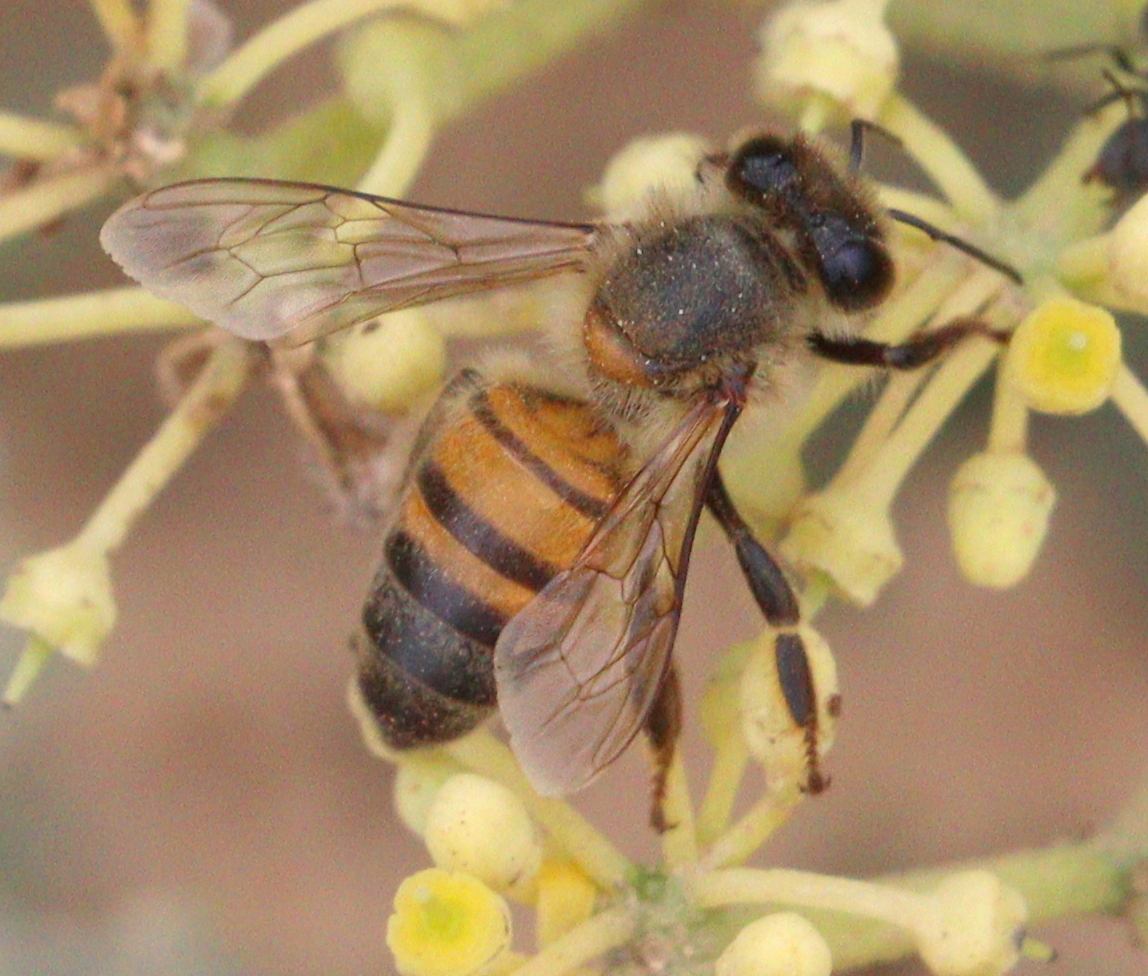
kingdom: Animalia
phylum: Arthropoda
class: Insecta
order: Hymenoptera
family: Apidae
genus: Apis
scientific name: Apis mellifera
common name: Honey bee
